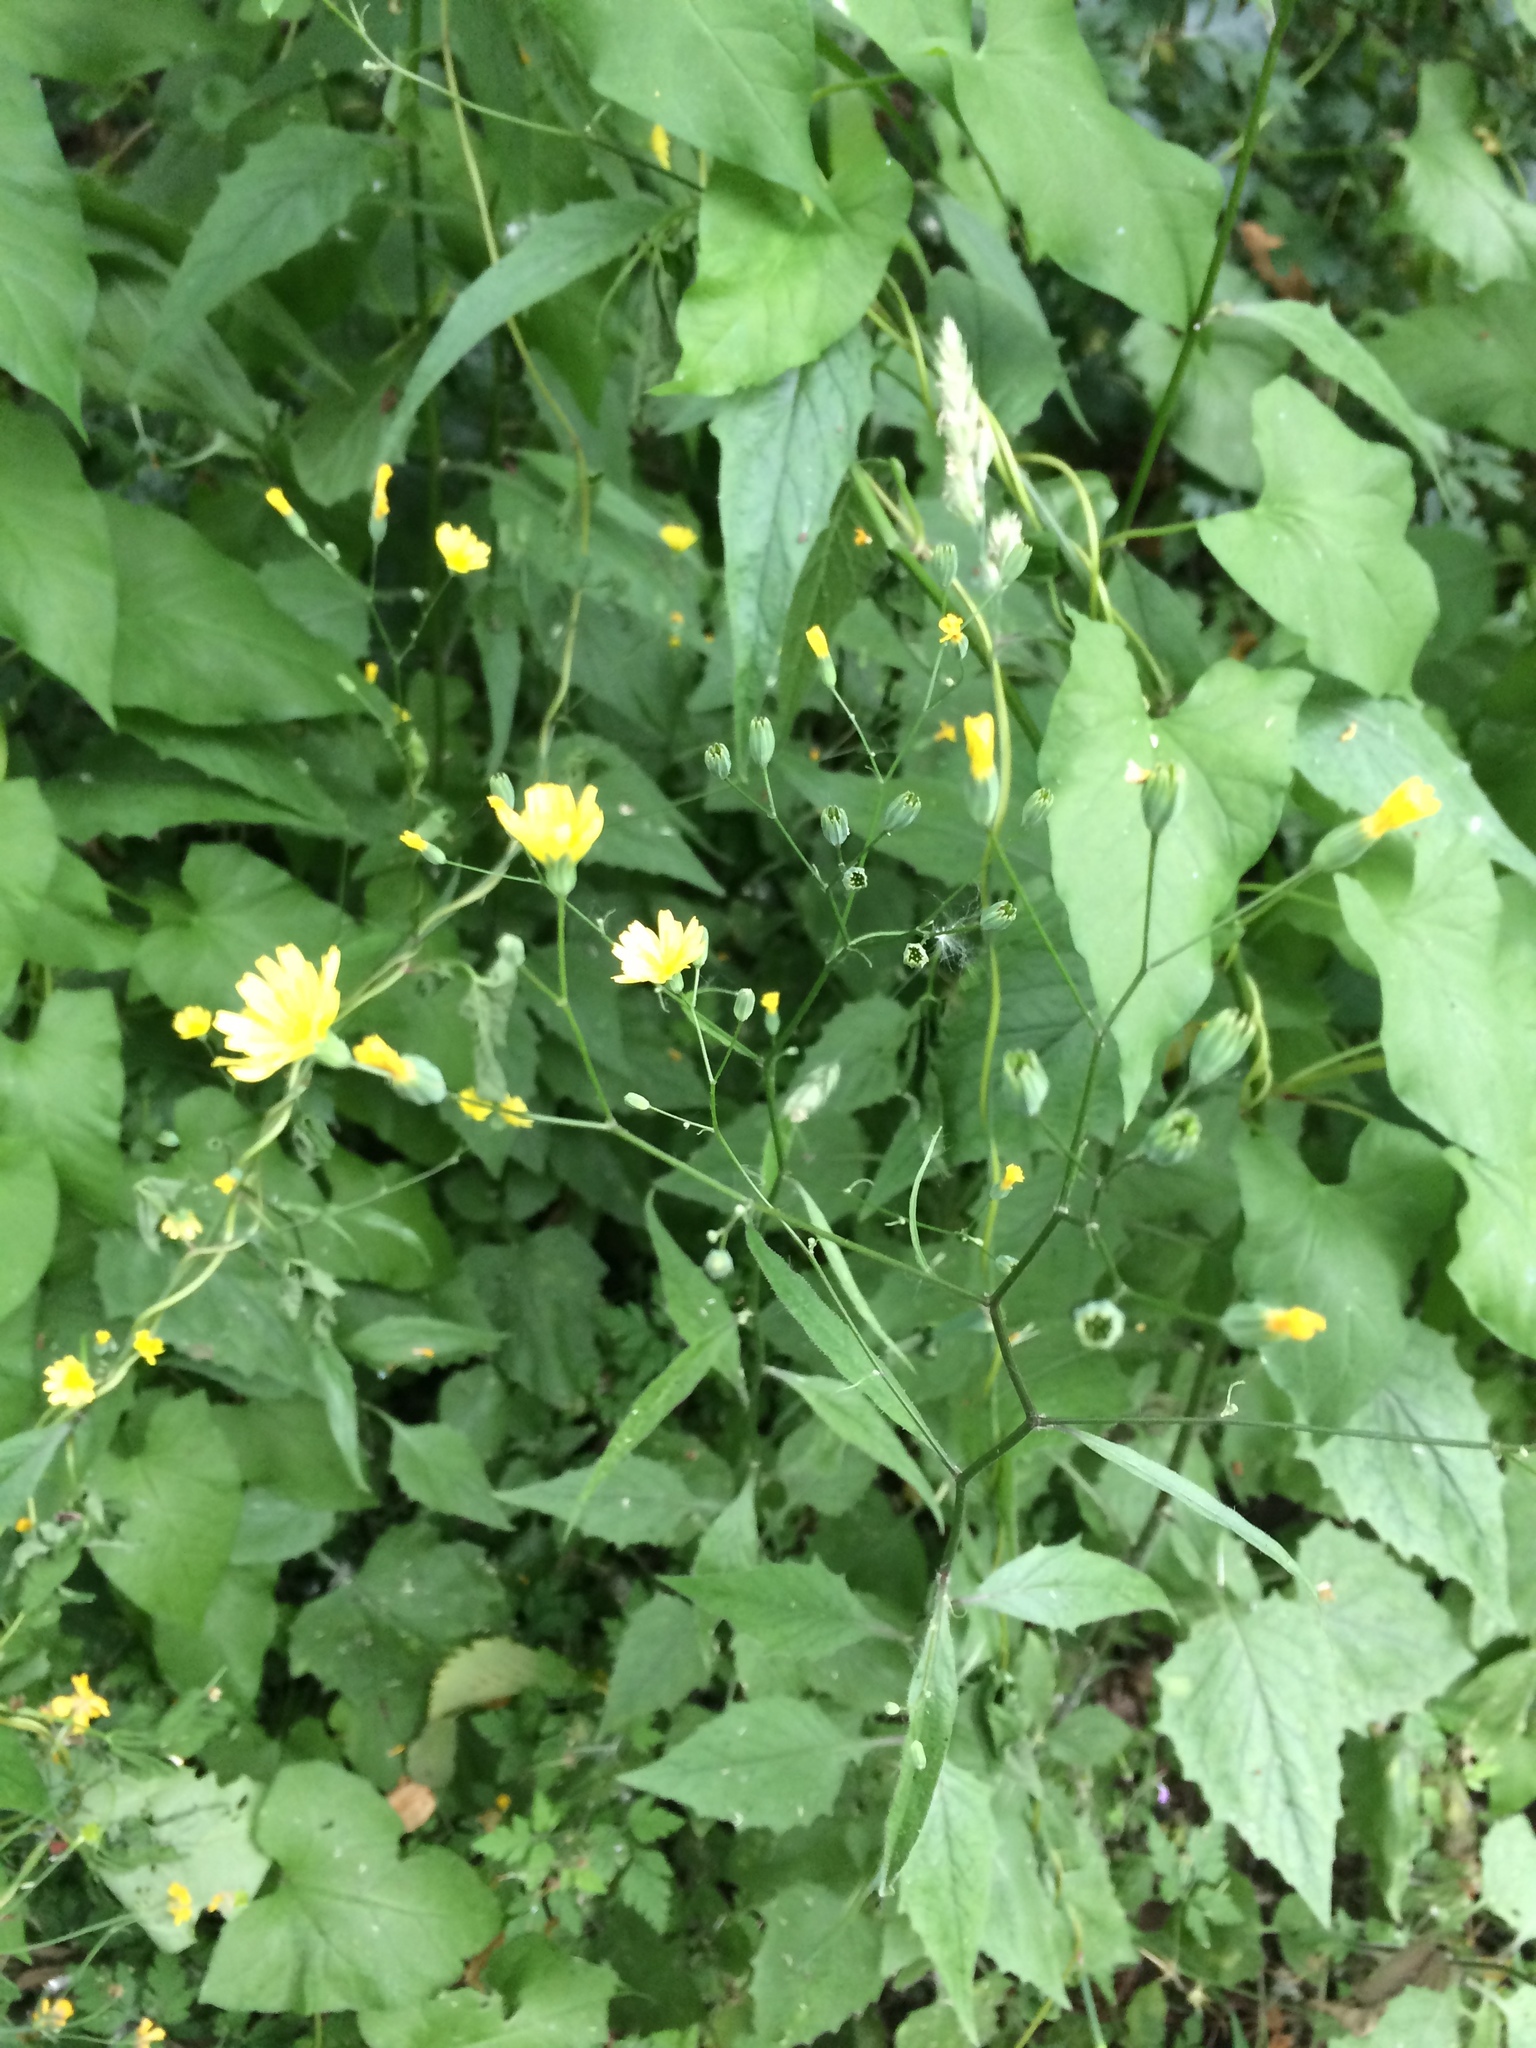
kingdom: Plantae
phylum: Tracheophyta
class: Magnoliopsida
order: Asterales
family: Asteraceae
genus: Lapsana
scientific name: Lapsana communis
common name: Nipplewort
